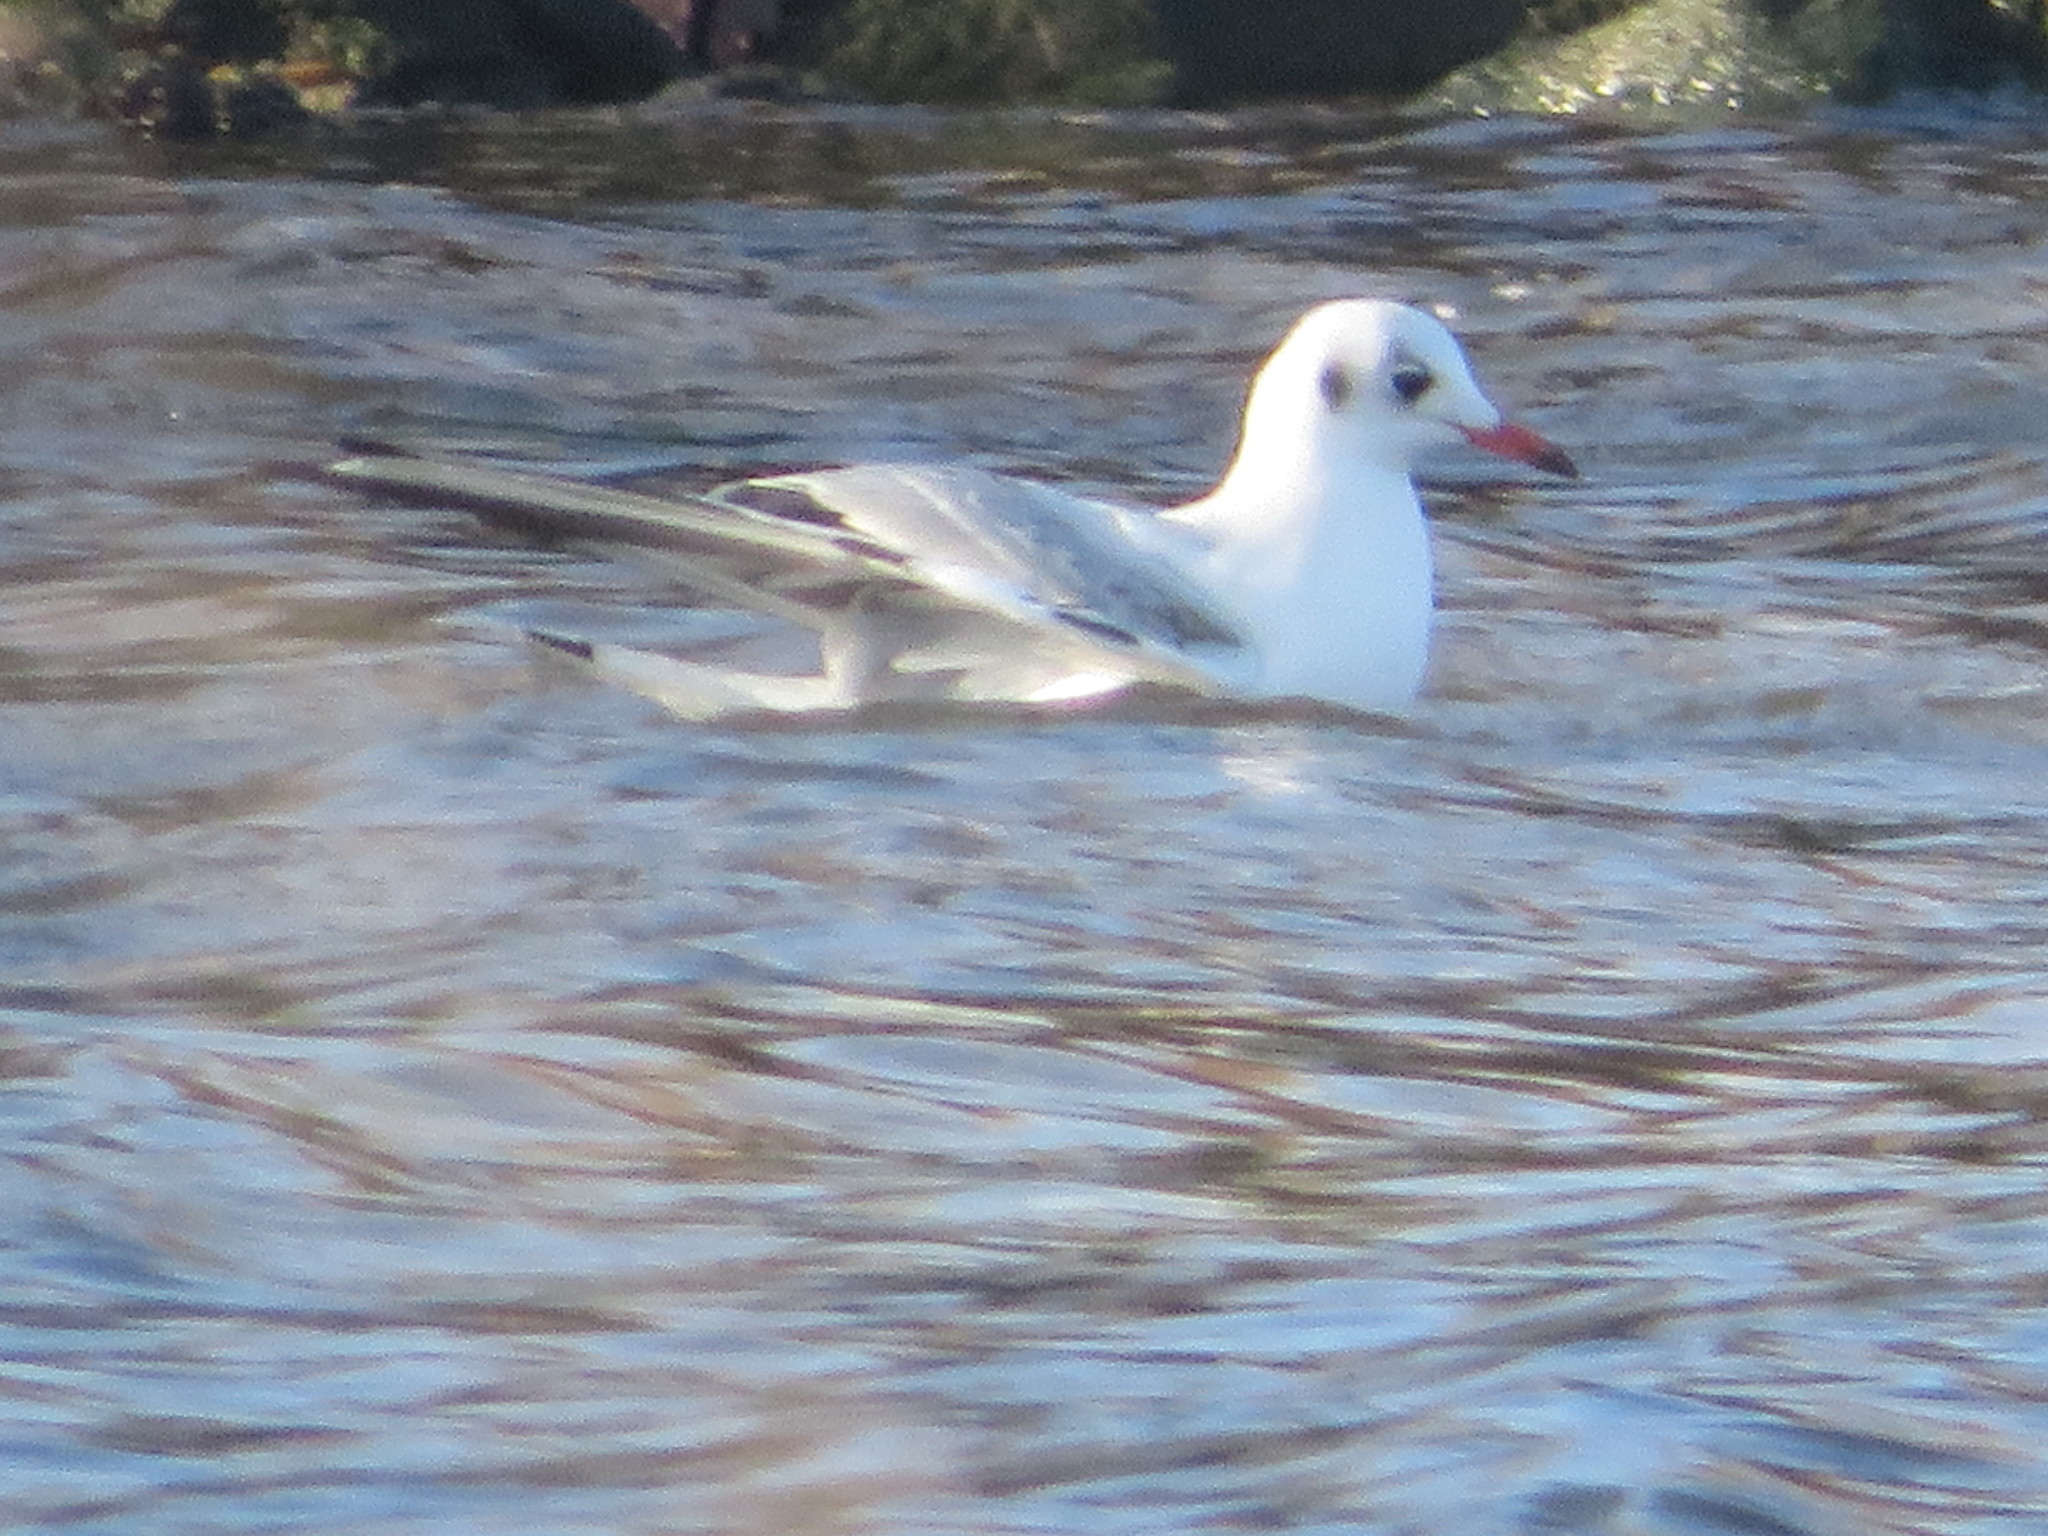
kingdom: Animalia
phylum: Chordata
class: Aves
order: Charadriiformes
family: Laridae
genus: Chroicocephalus
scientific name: Chroicocephalus ridibundus
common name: Black-headed gull
